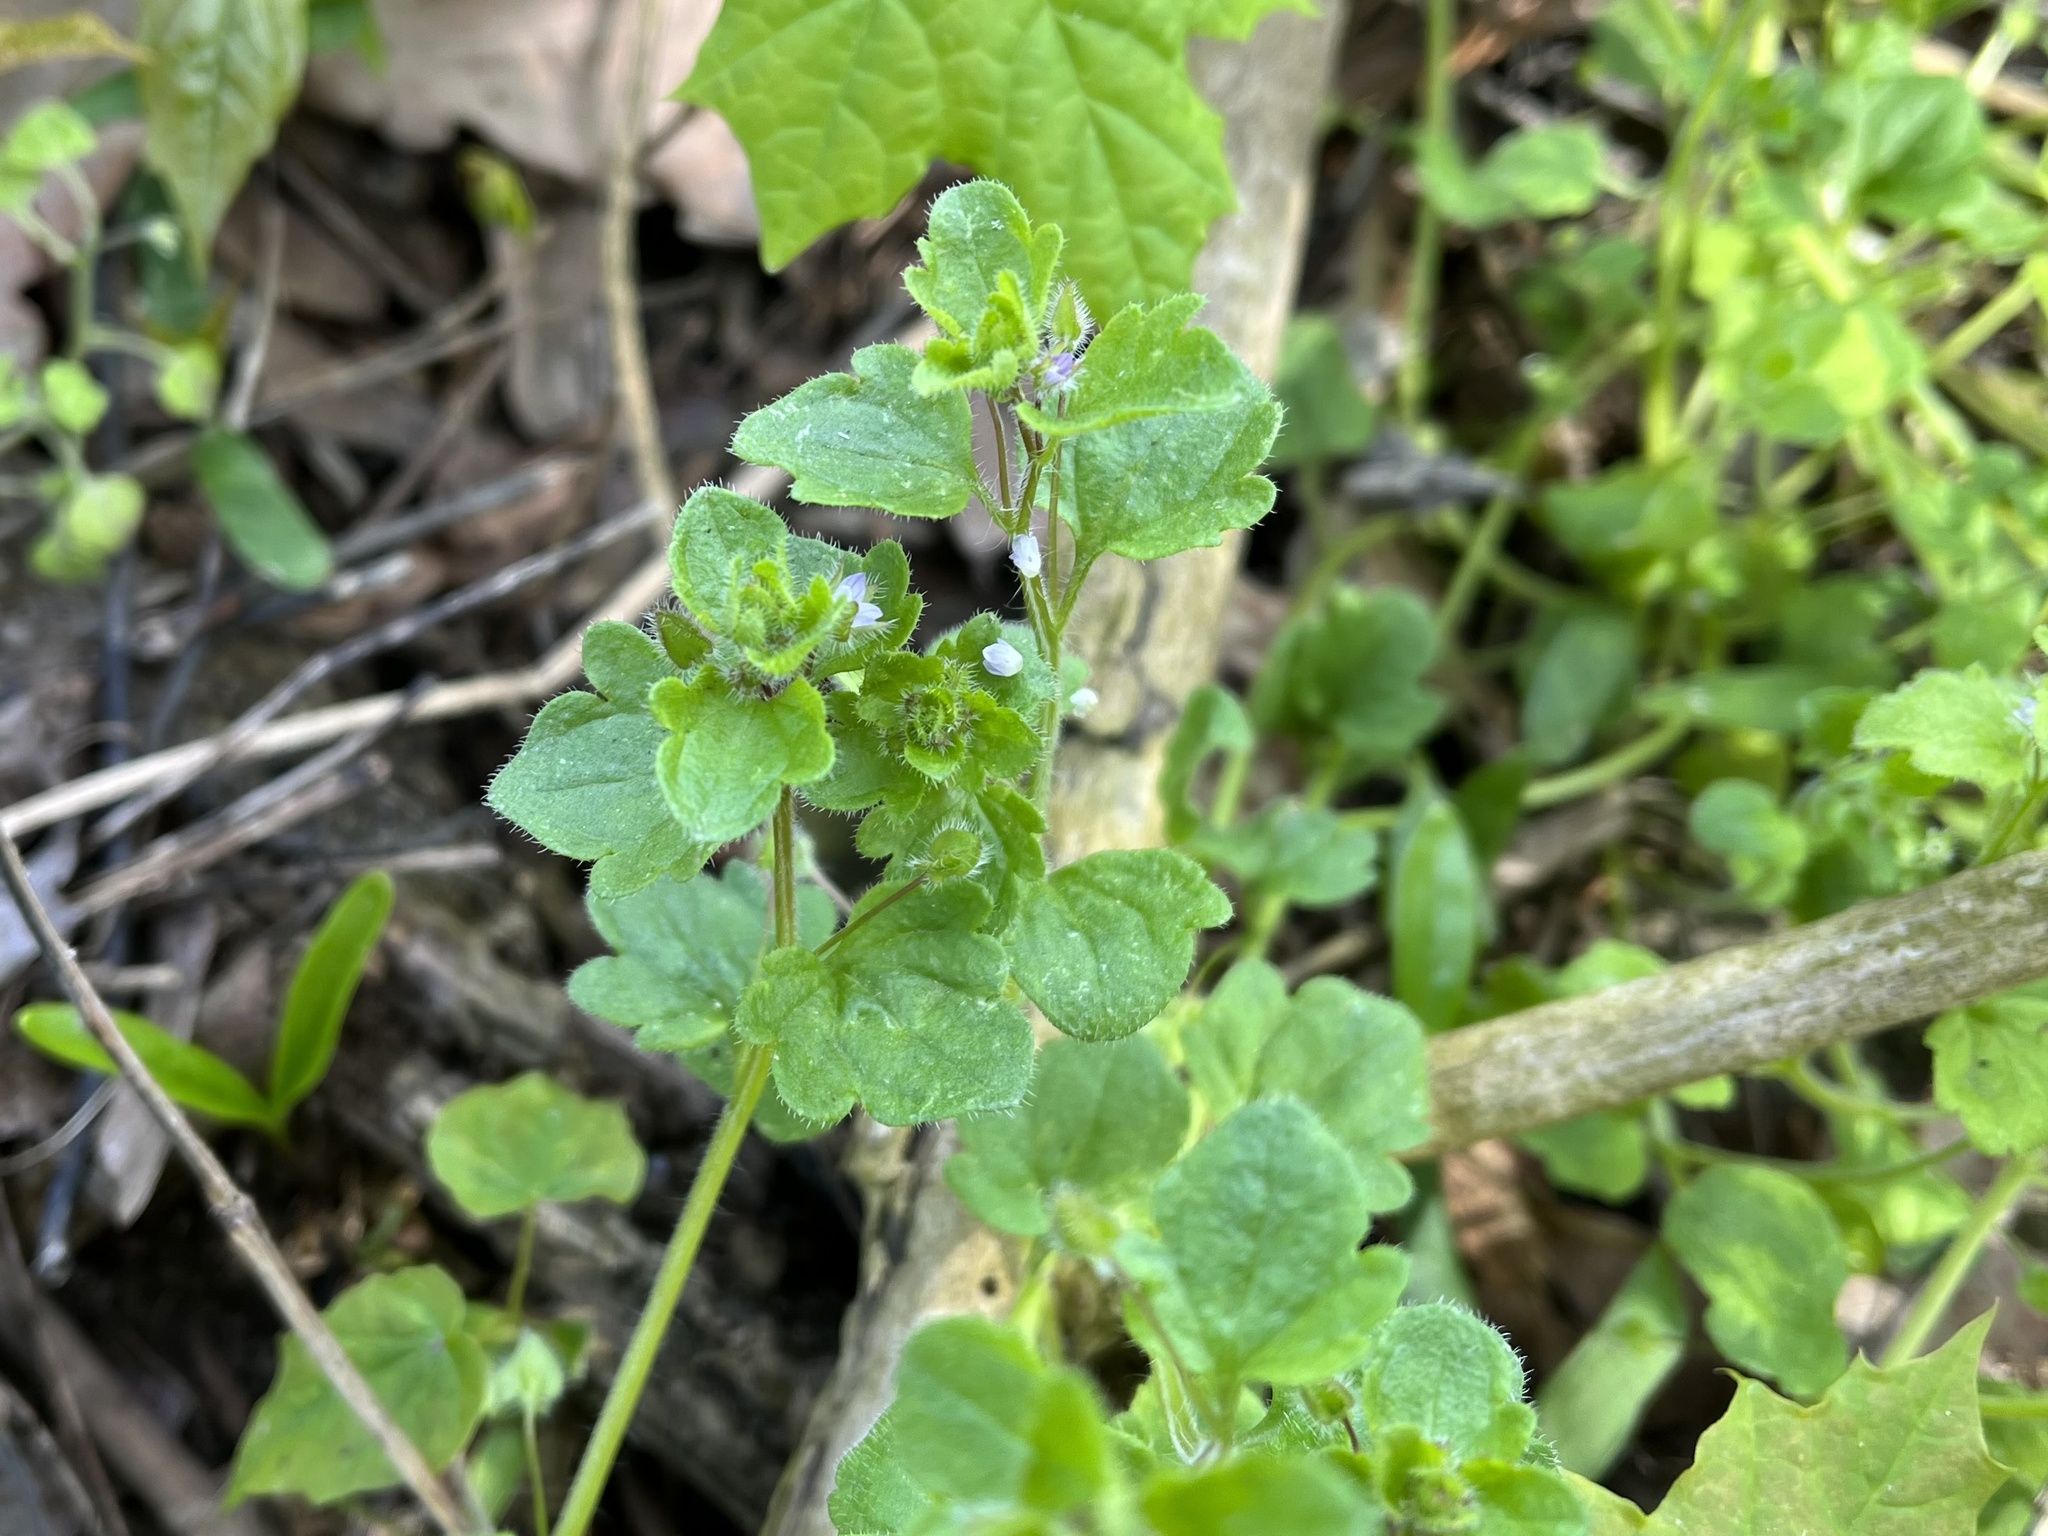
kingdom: Plantae
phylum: Tracheophyta
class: Magnoliopsida
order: Lamiales
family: Plantaginaceae
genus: Veronica
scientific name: Veronica sublobata
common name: False ivy-leaved speedwell
